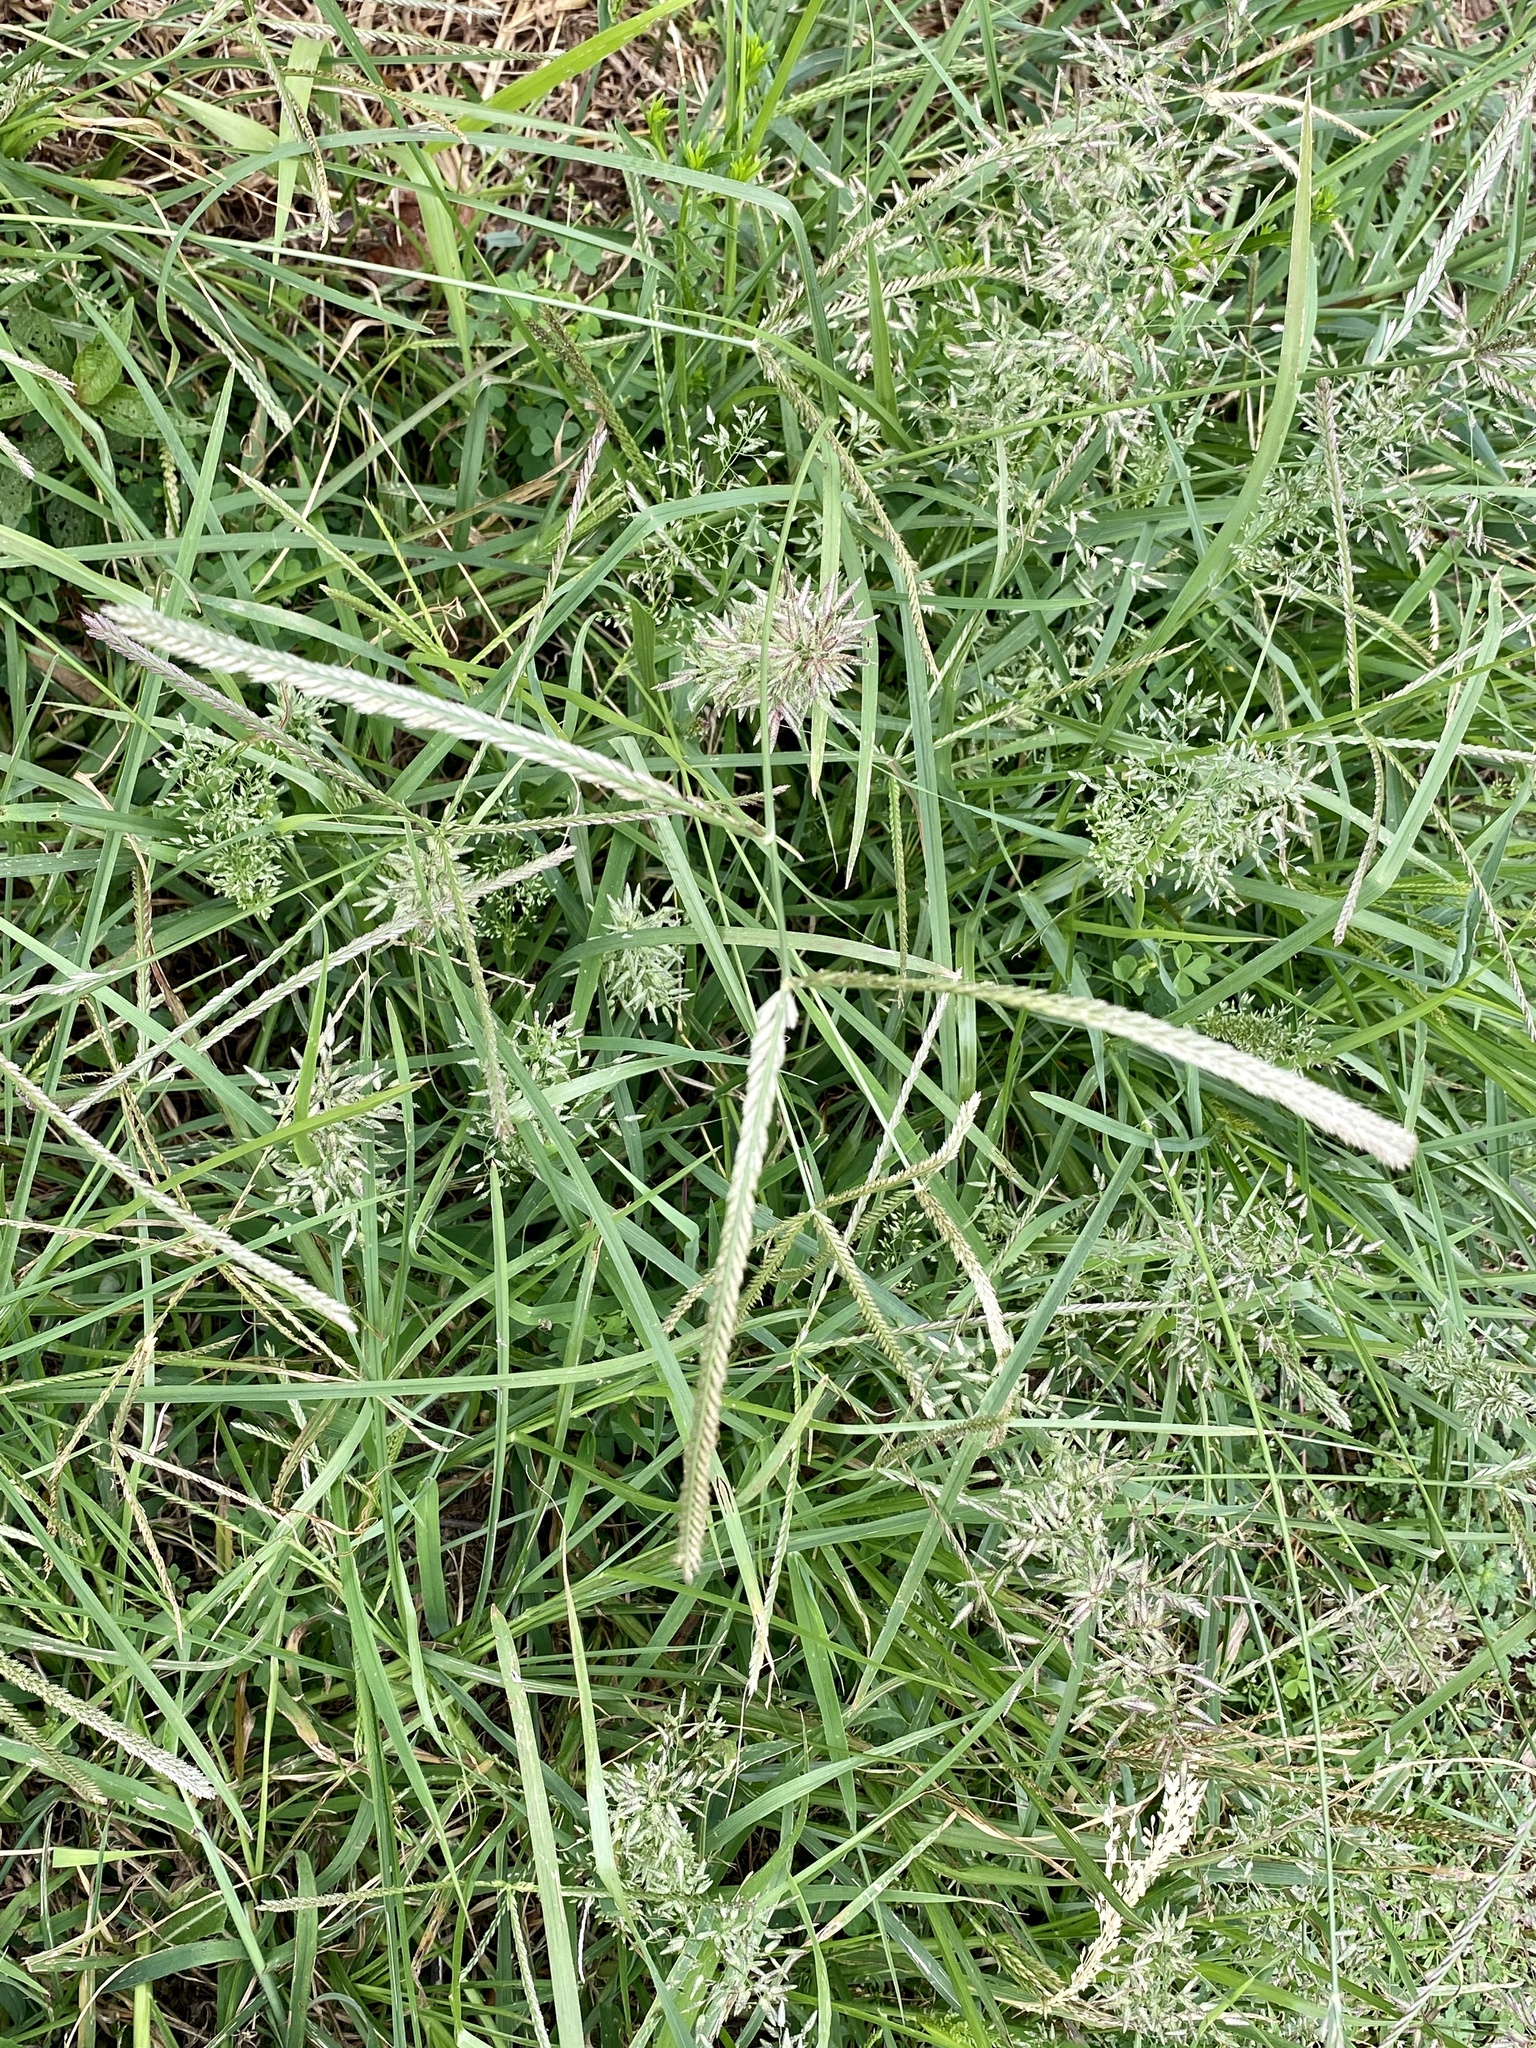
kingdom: Plantae
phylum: Tracheophyta
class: Liliopsida
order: Poales
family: Poaceae
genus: Eleusine
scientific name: Eleusine indica
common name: Yard-grass
